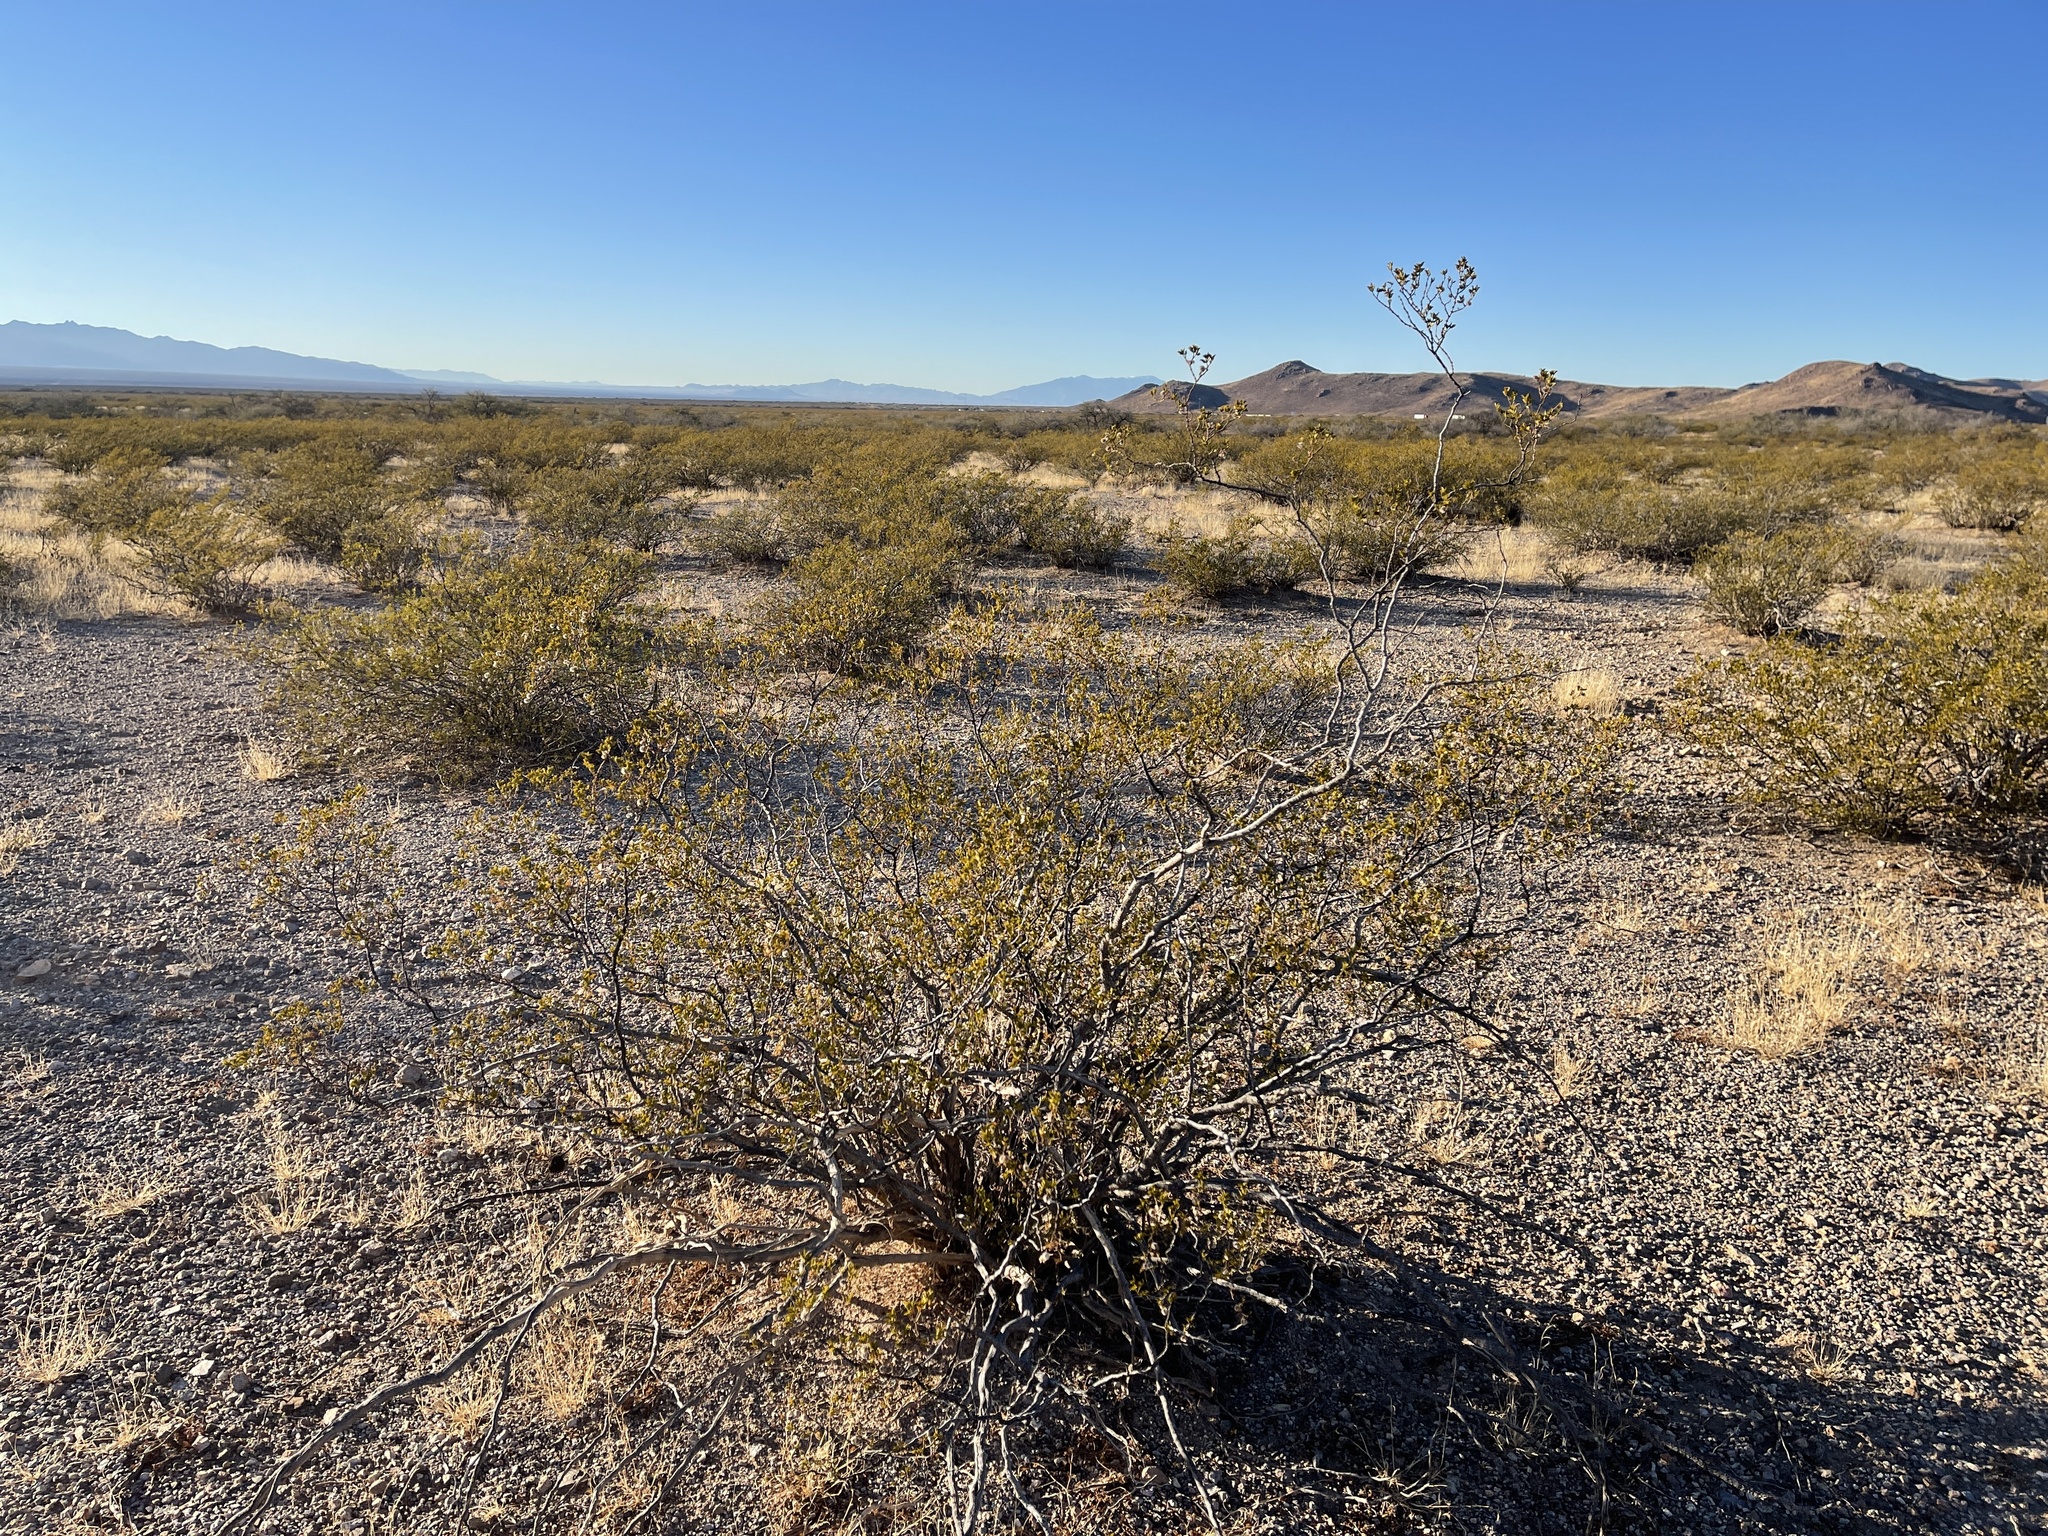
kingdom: Plantae
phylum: Tracheophyta
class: Magnoliopsida
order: Zygophyllales
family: Zygophyllaceae
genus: Larrea
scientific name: Larrea tridentata
